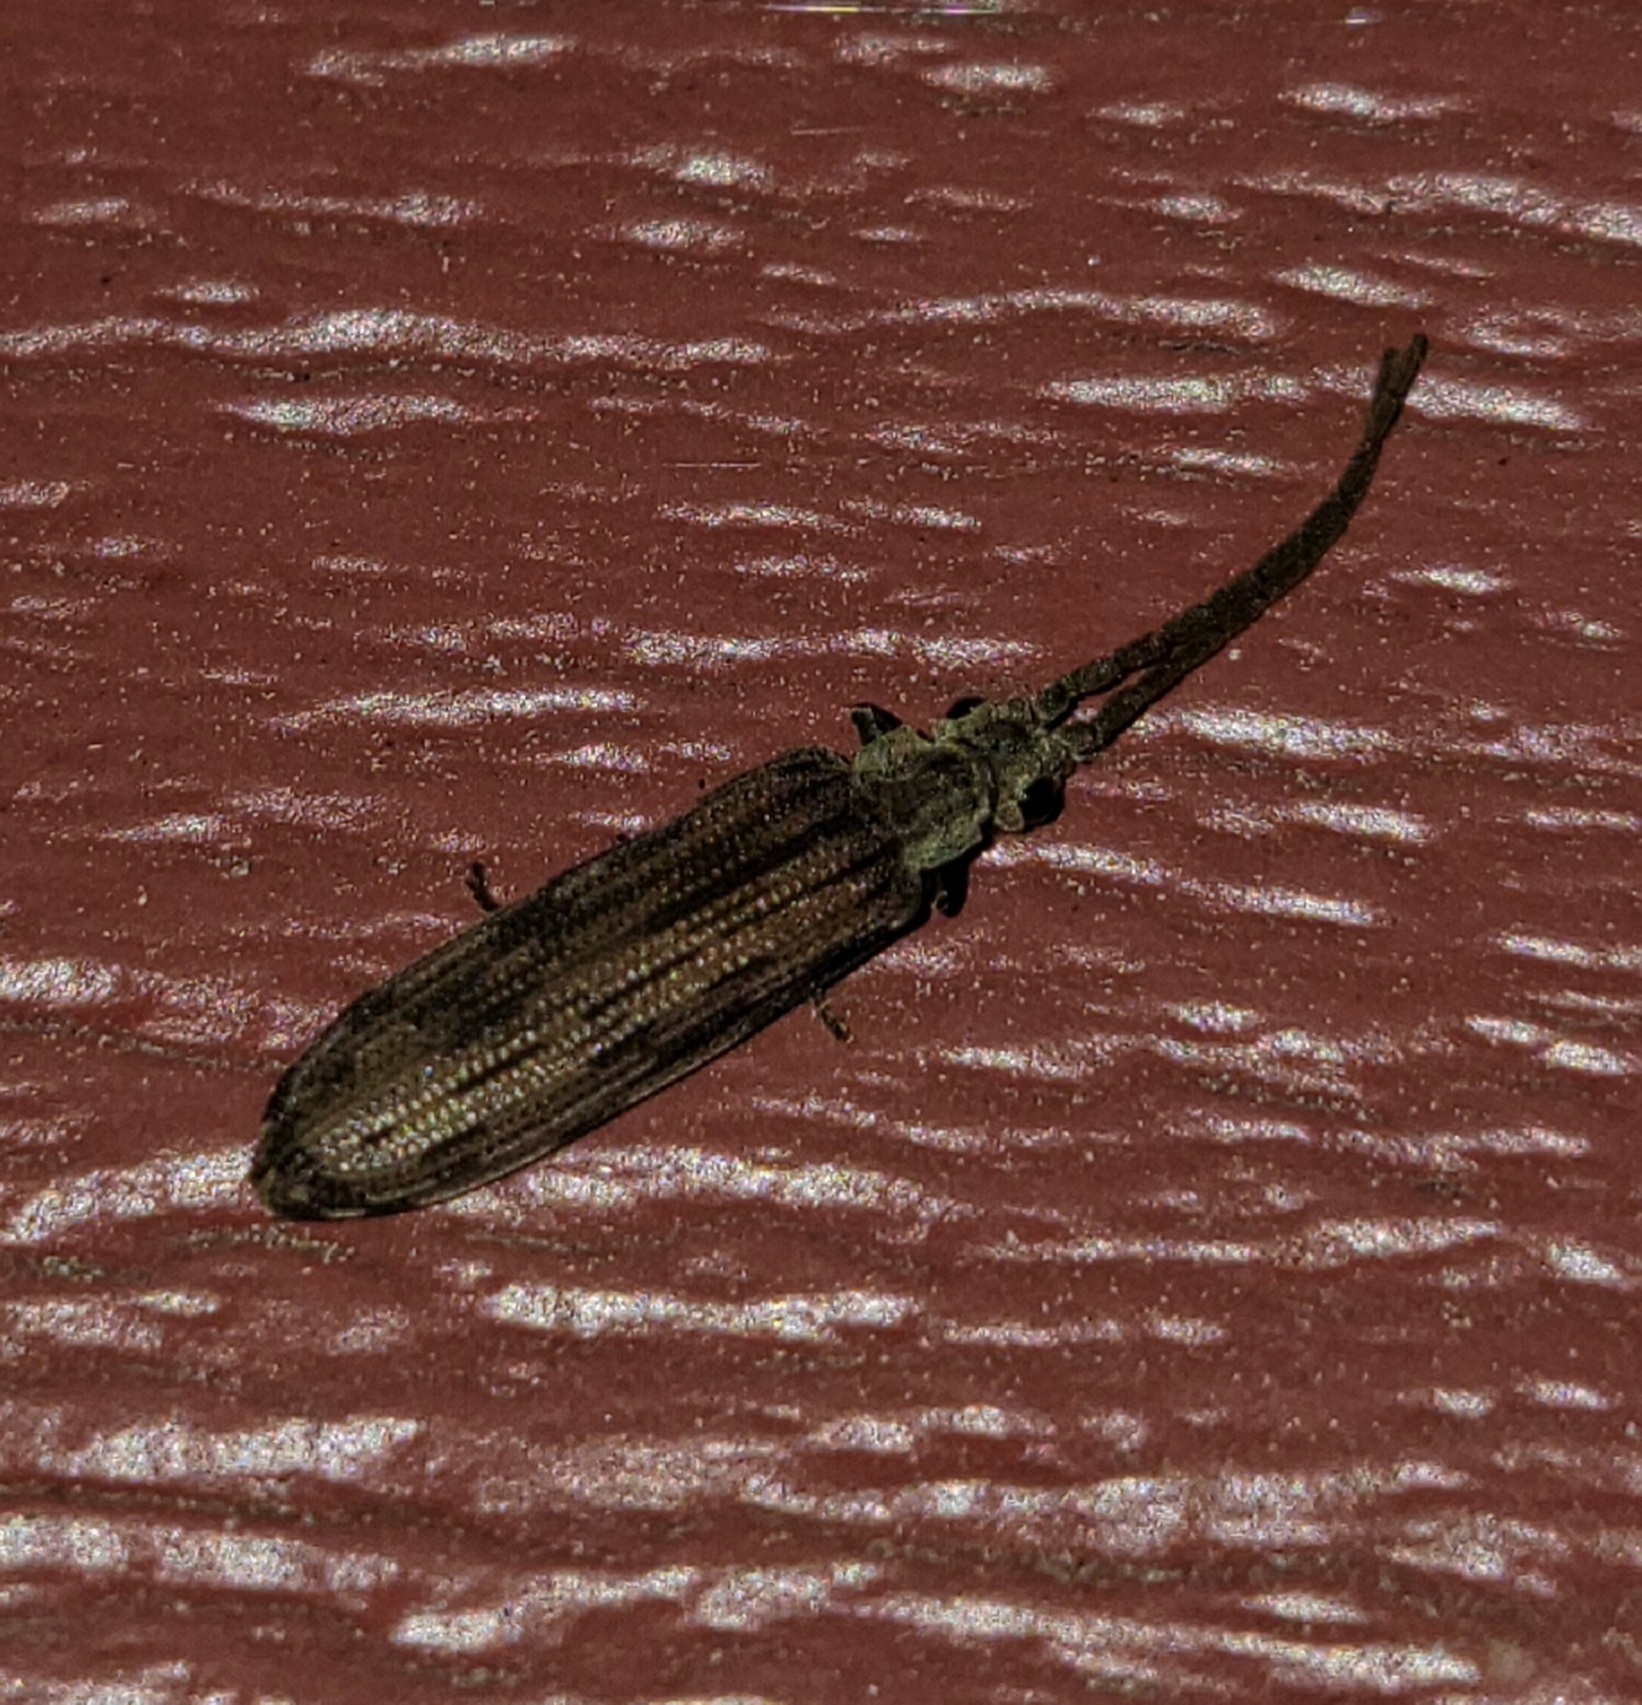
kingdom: Animalia
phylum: Arthropoda
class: Insecta
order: Coleoptera
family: Cupedidae
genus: Tenomerga
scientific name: Tenomerga cinerea
